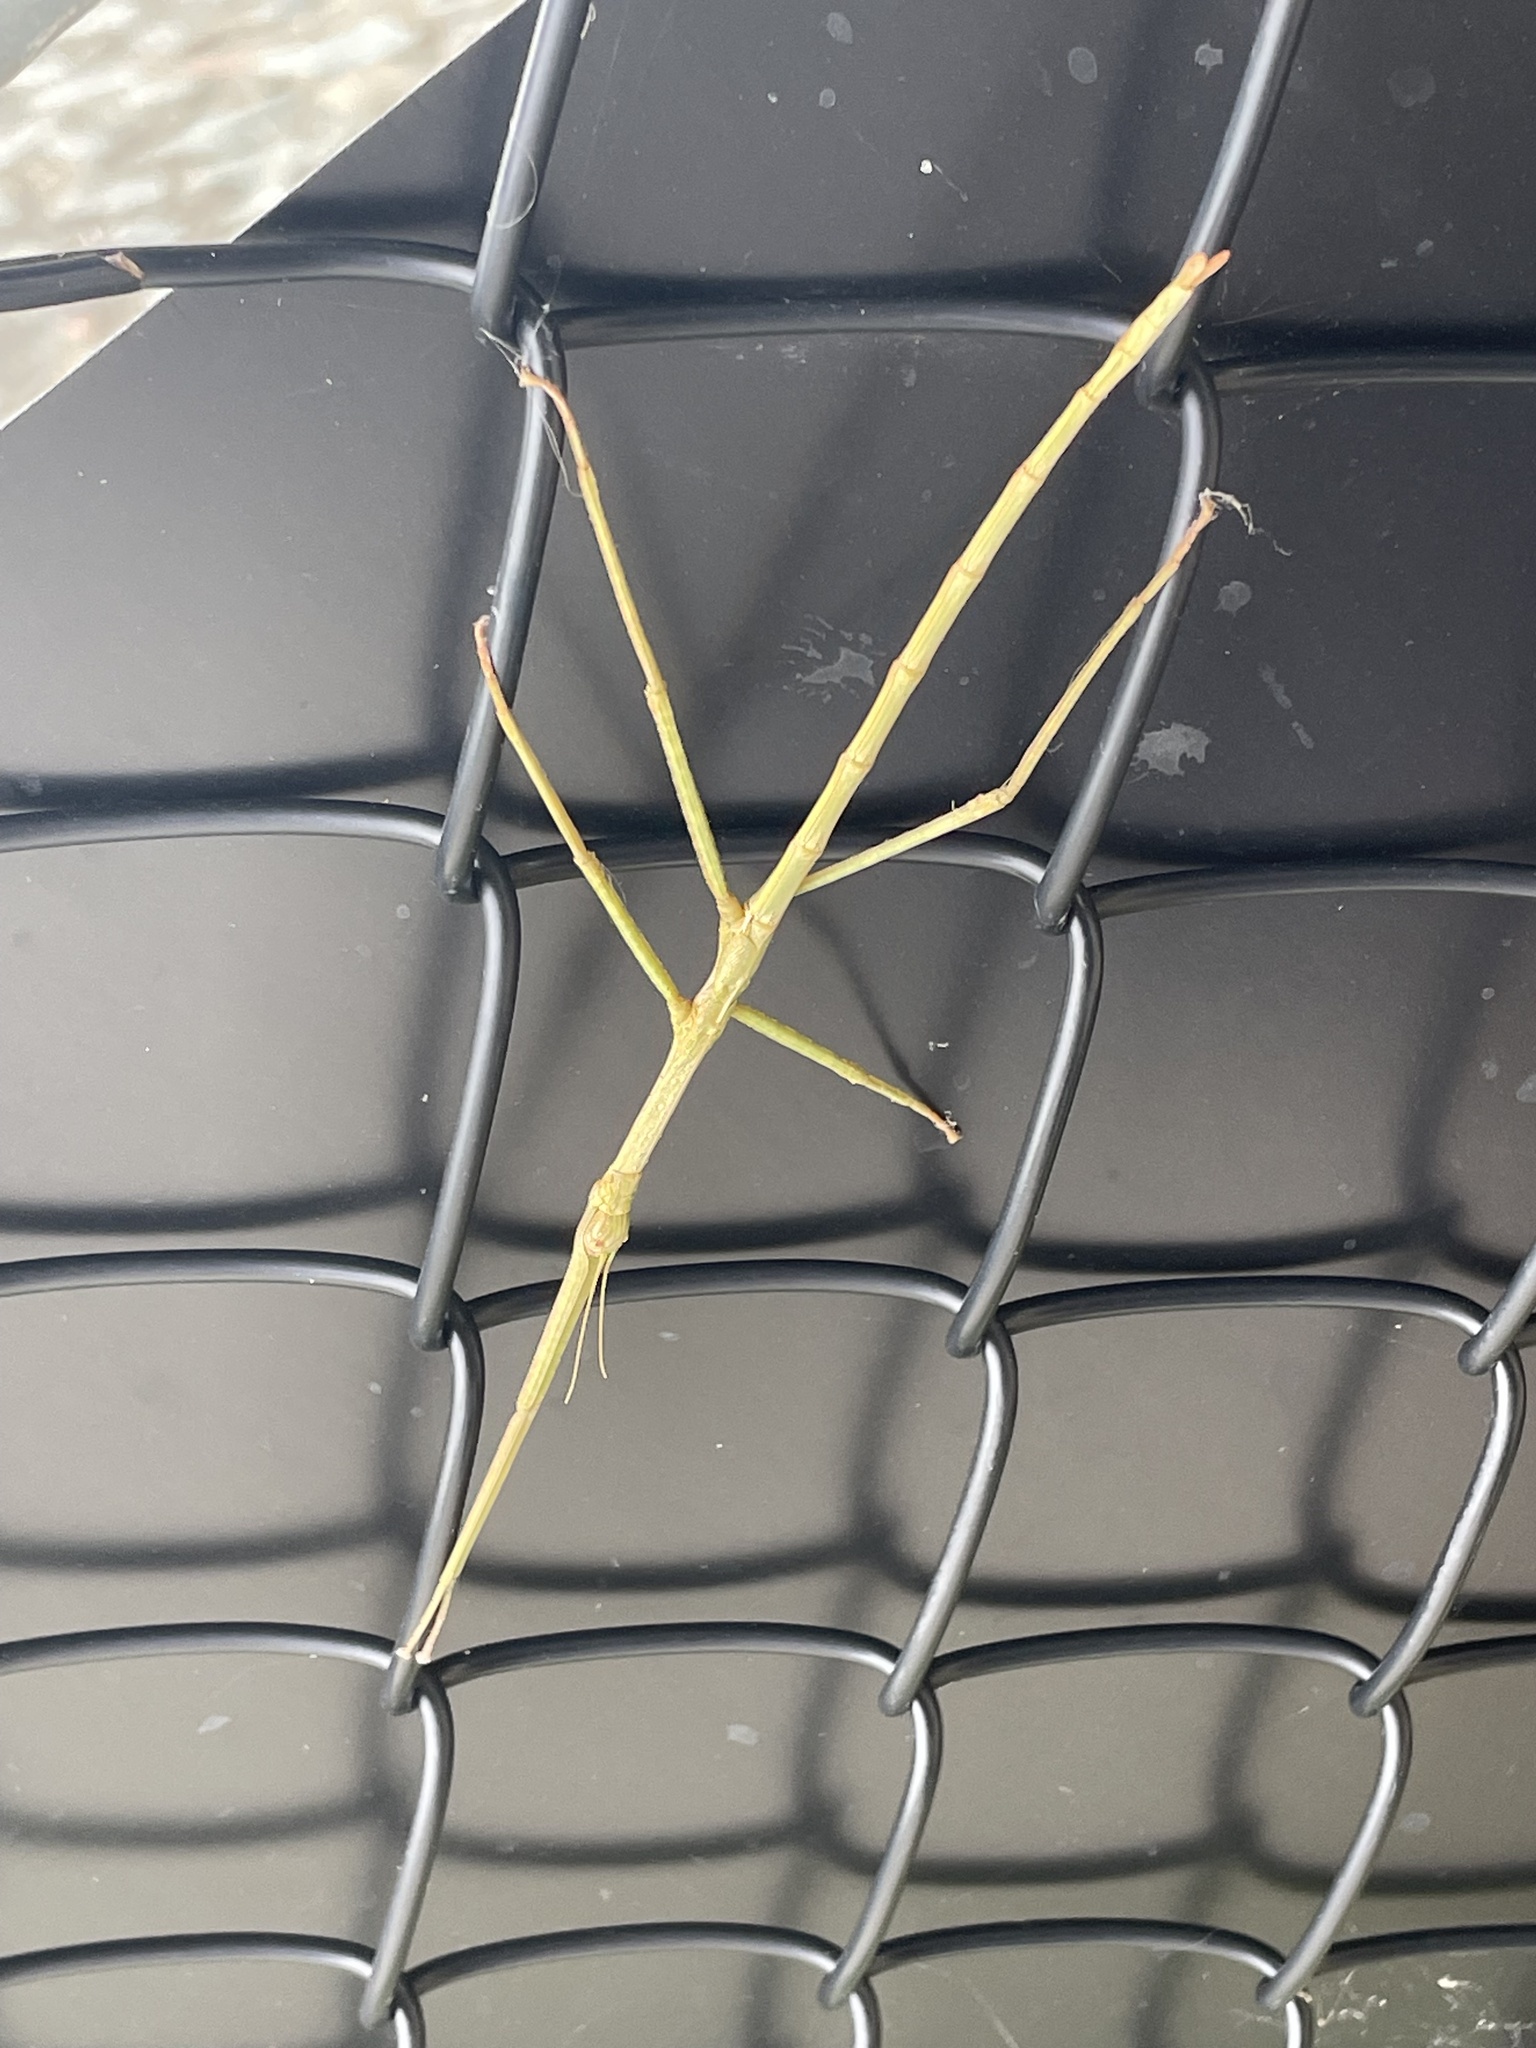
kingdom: Animalia
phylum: Arthropoda
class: Insecta
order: Phasmida
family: Phasmatidae
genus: Anchiale
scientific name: Anchiale austrotessulata
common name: Tessellated stick-insect
